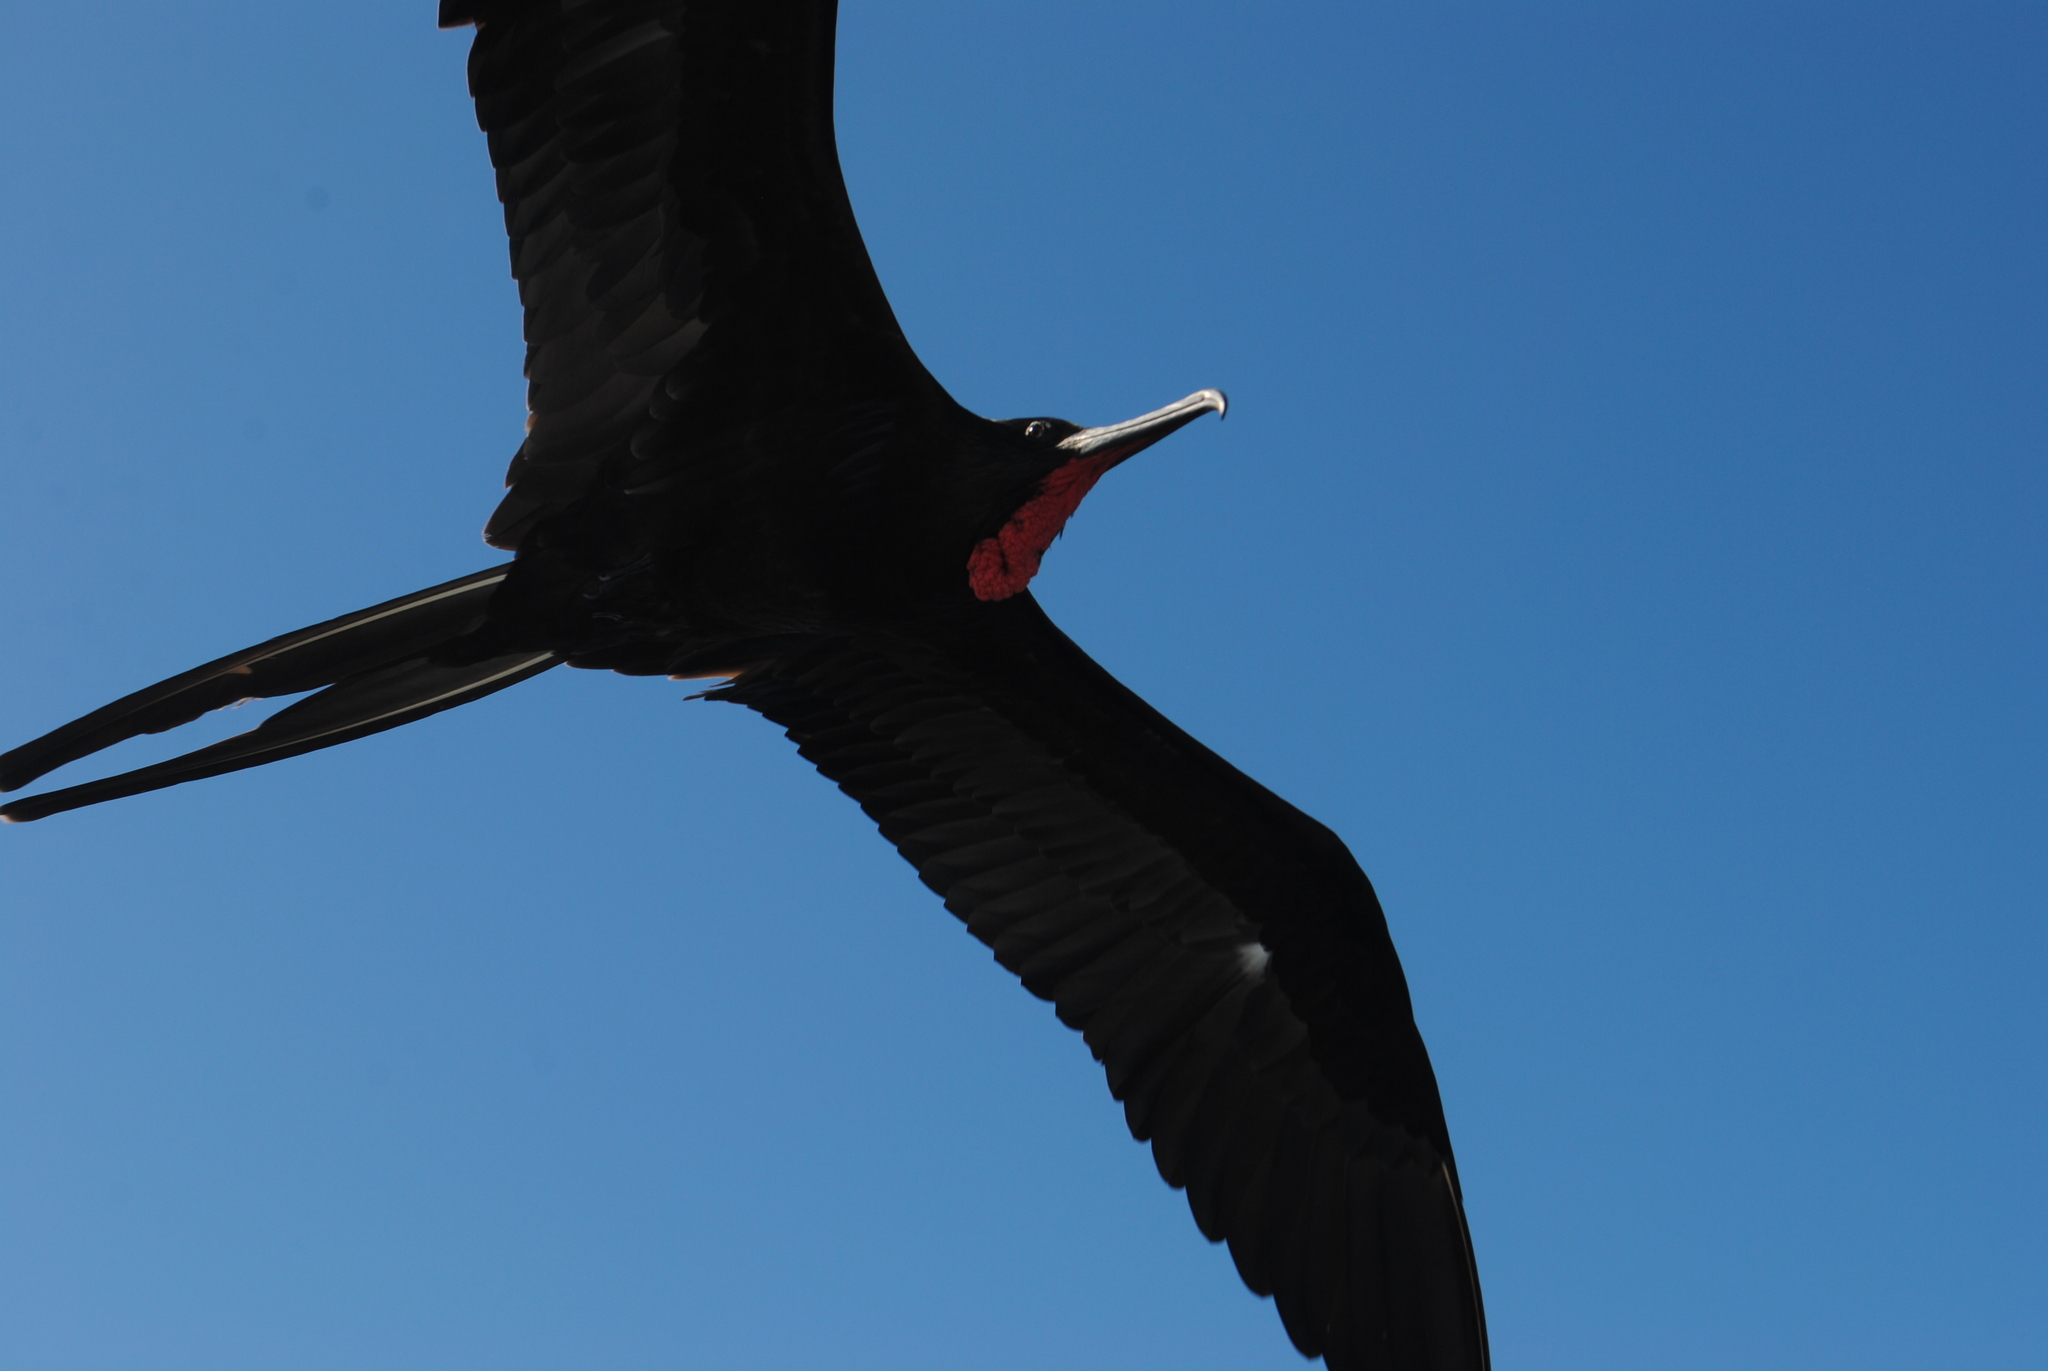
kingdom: Animalia
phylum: Chordata
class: Aves
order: Suliformes
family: Fregatidae
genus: Fregata
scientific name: Fregata magnificens
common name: Magnificent frigatebird
